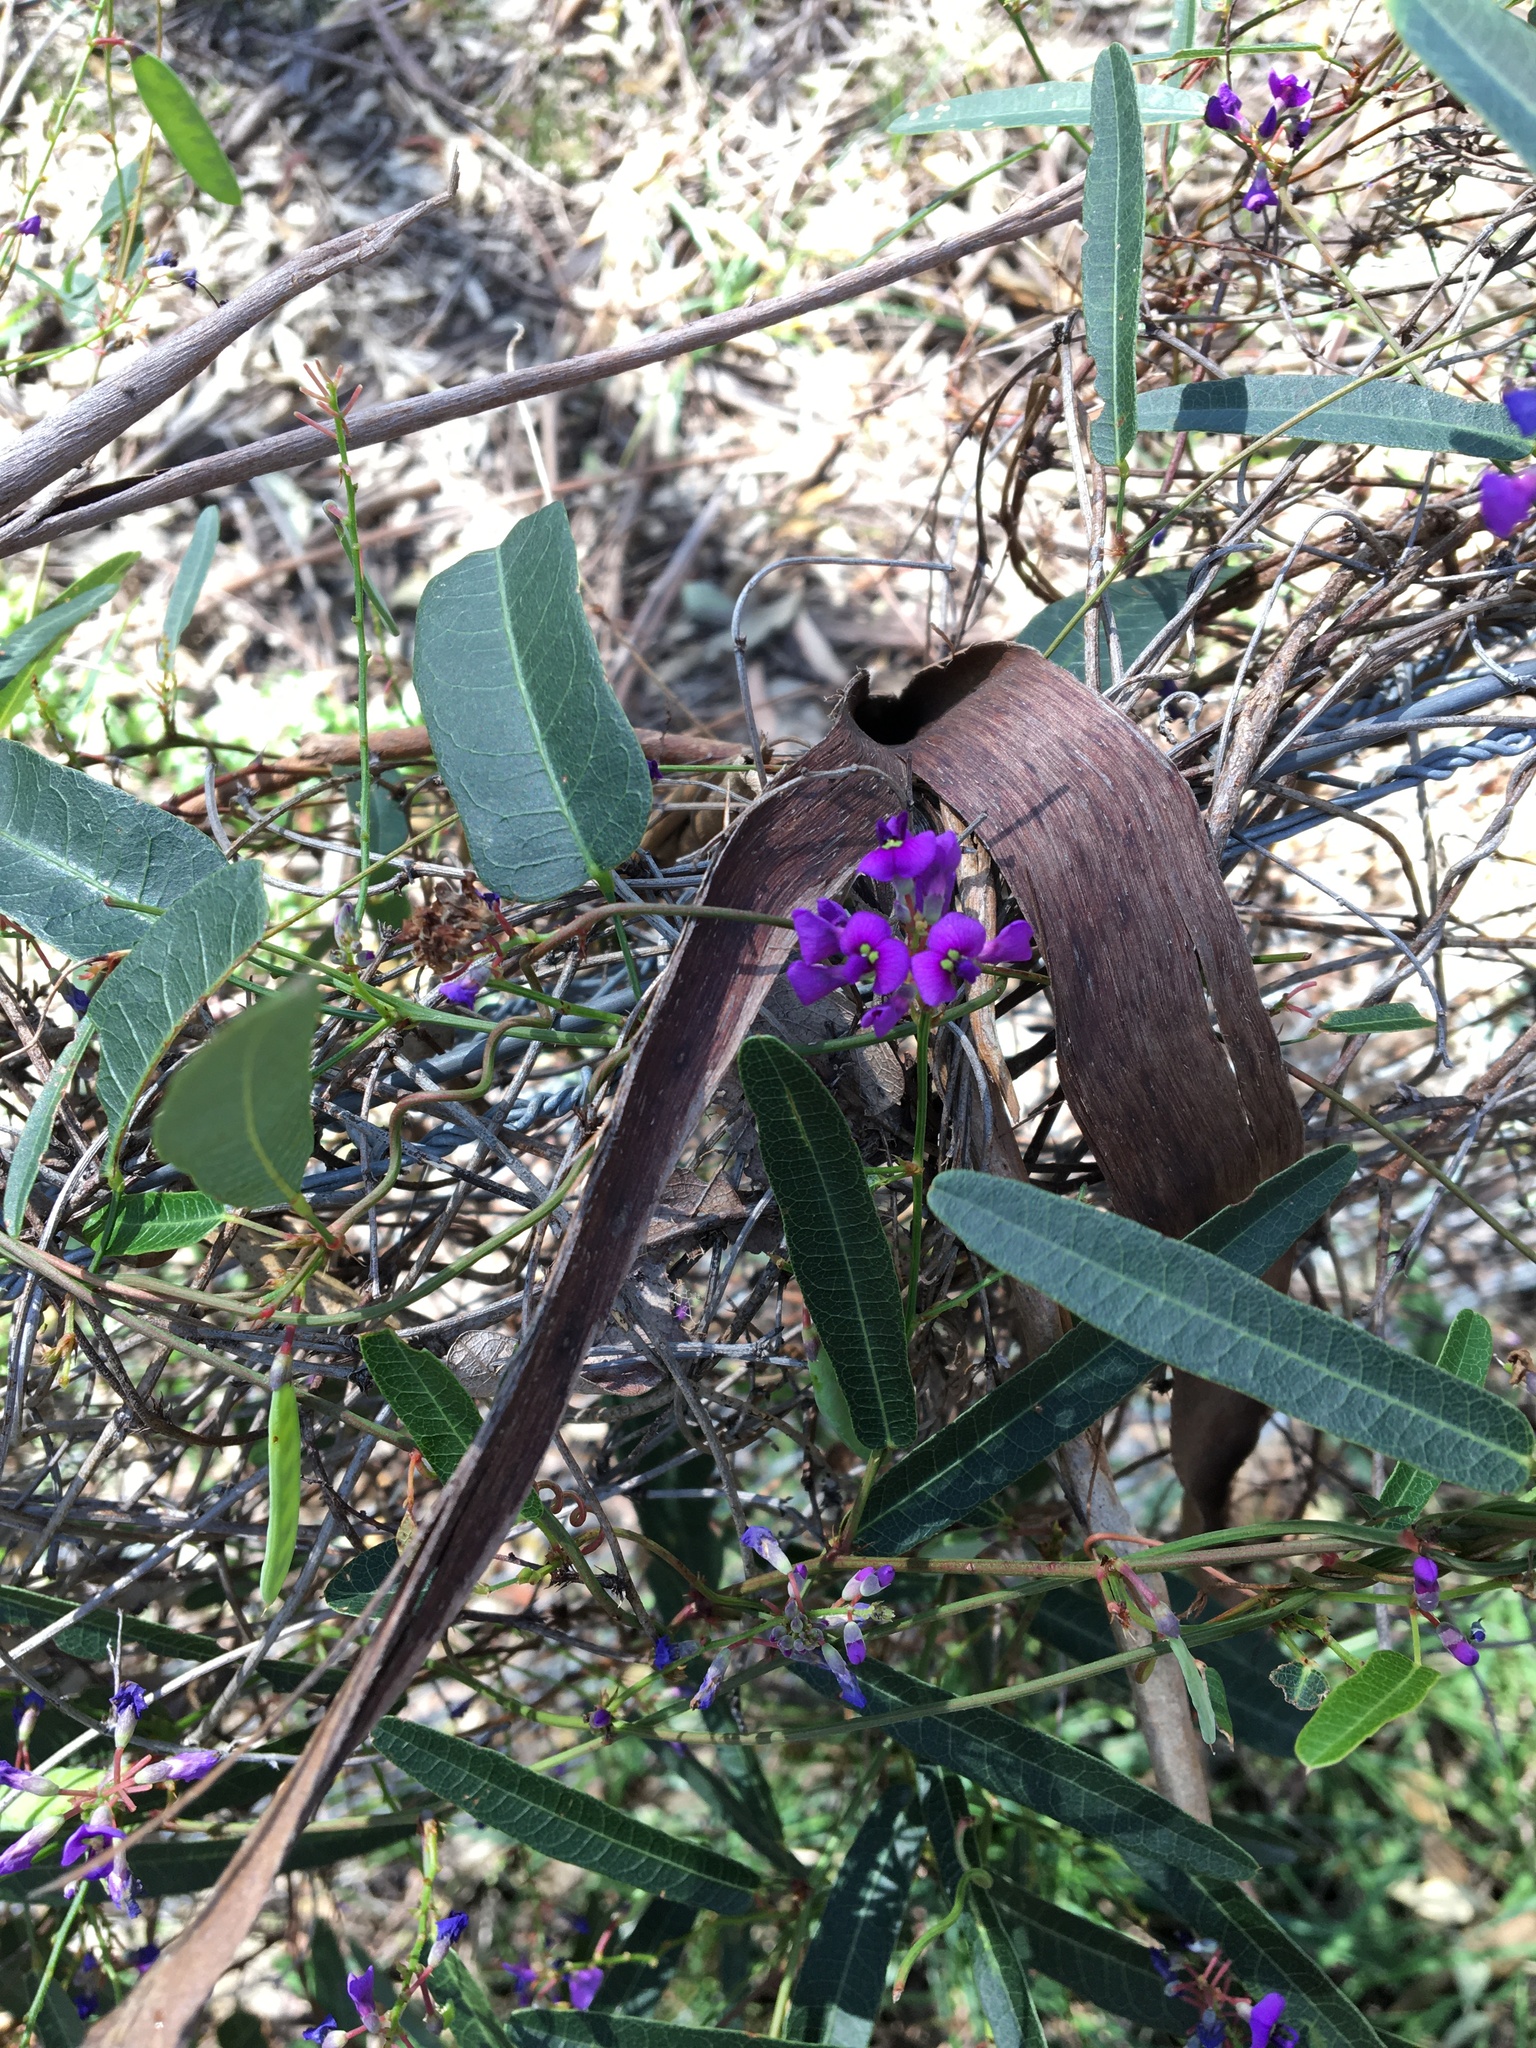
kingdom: Plantae
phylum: Tracheophyta
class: Magnoliopsida
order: Fabales
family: Fabaceae
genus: Hardenbergia
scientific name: Hardenbergia violacea
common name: Coral-pea
